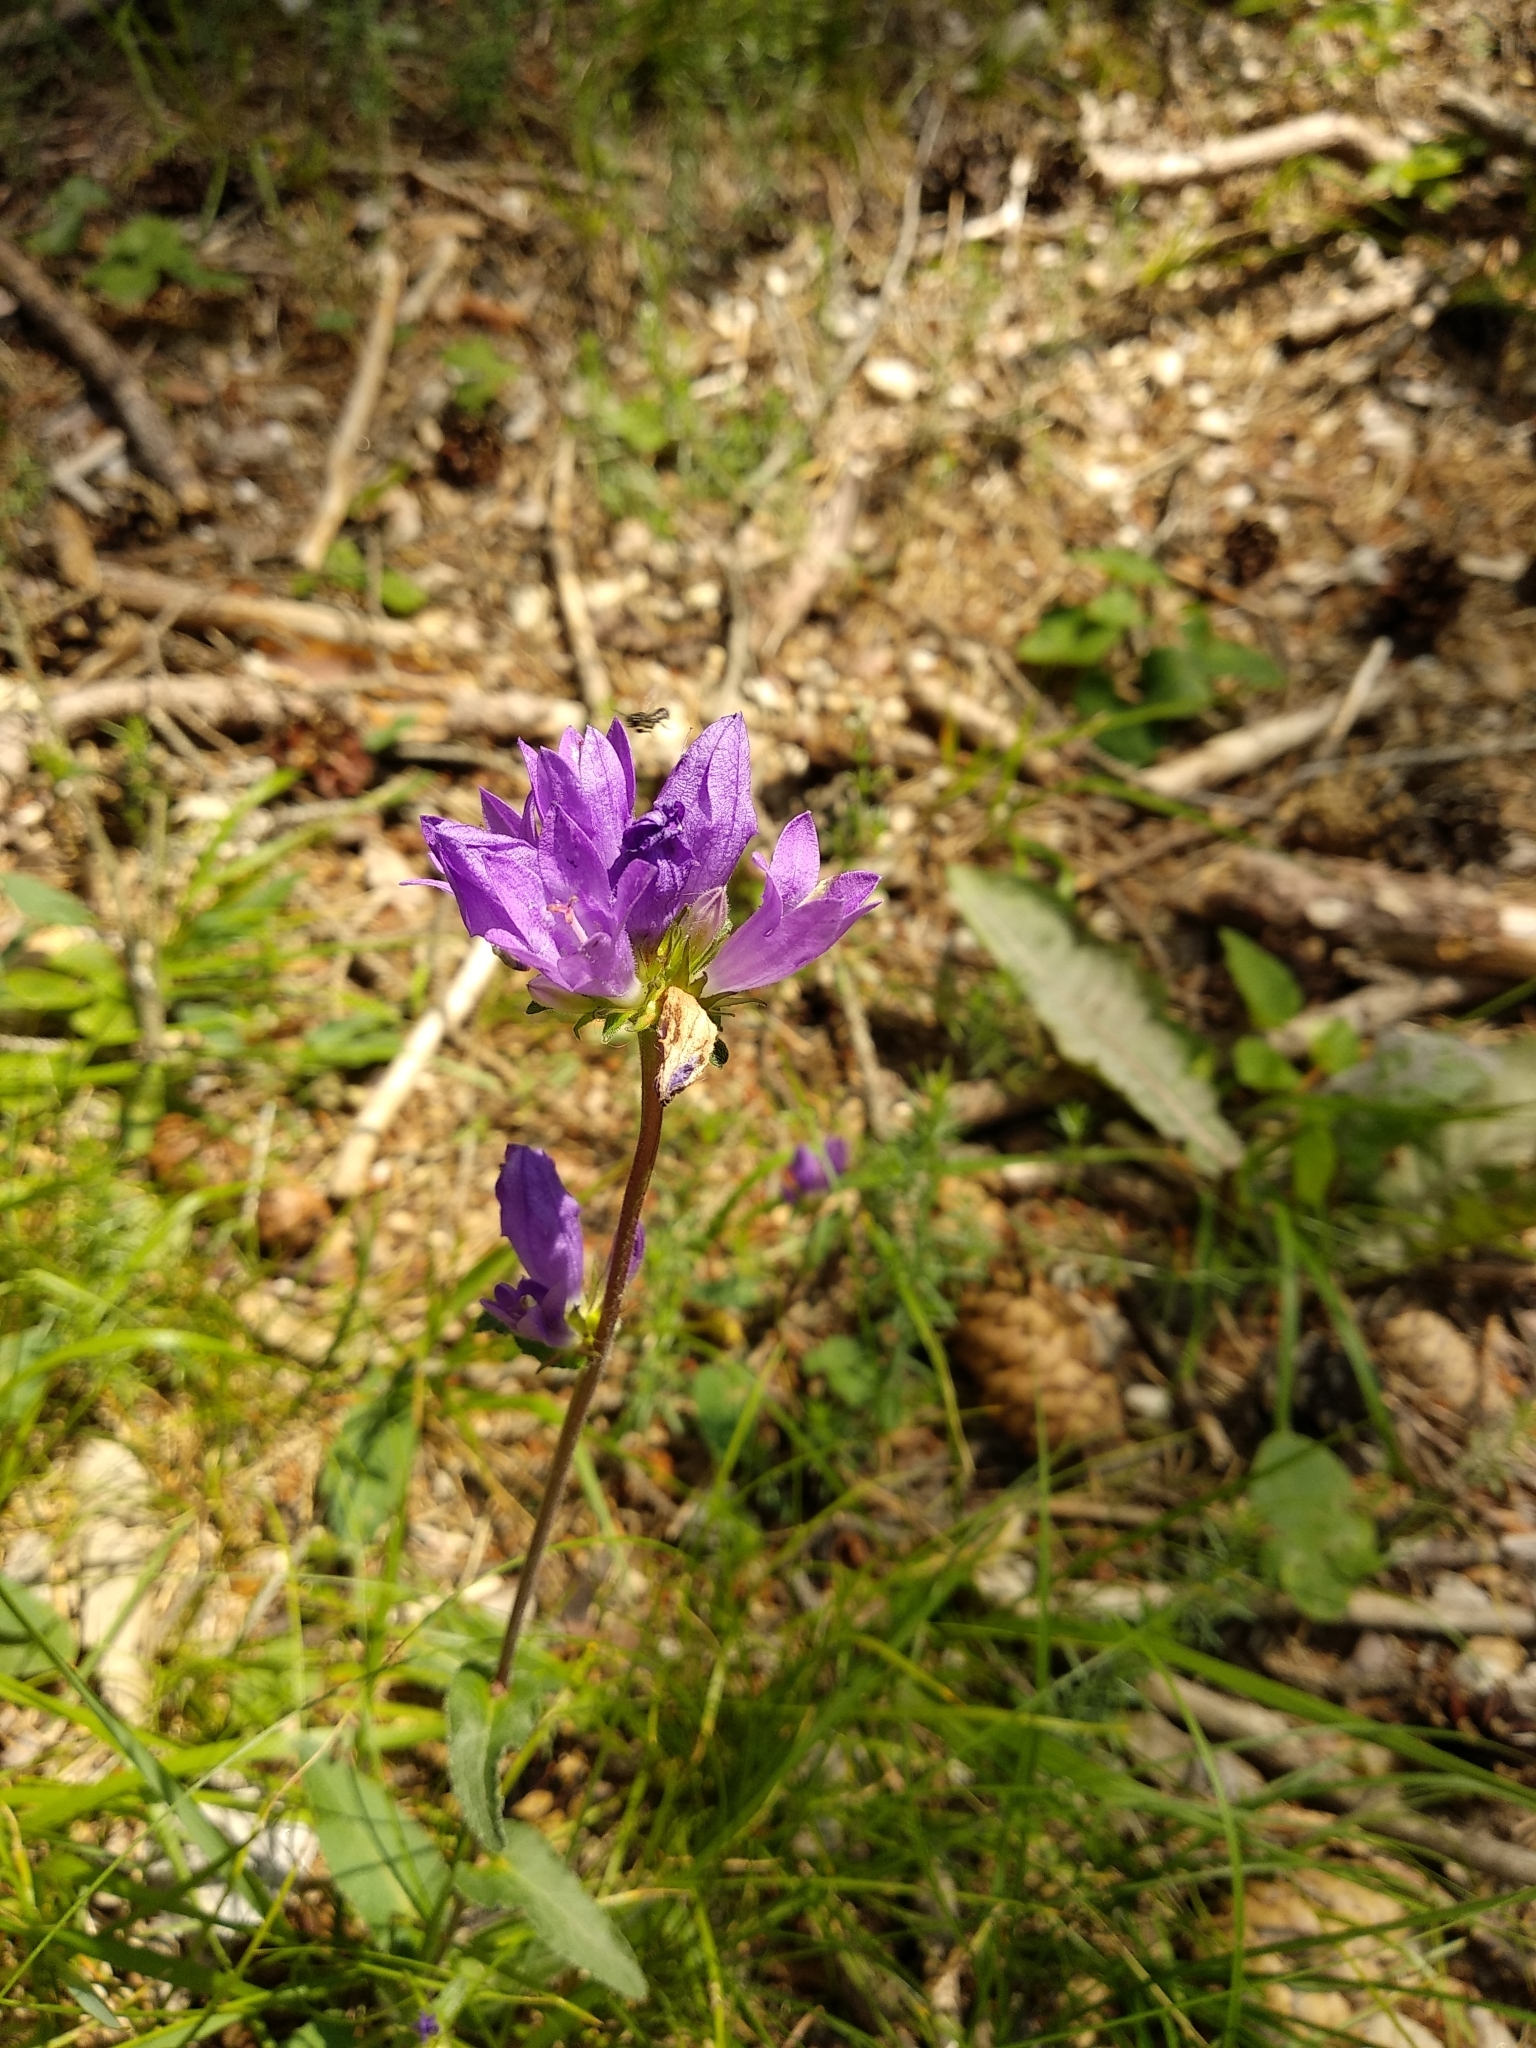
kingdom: Plantae
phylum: Tracheophyta
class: Magnoliopsida
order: Asterales
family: Campanulaceae
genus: Campanula
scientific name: Campanula glomerata
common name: Clustered bellflower
